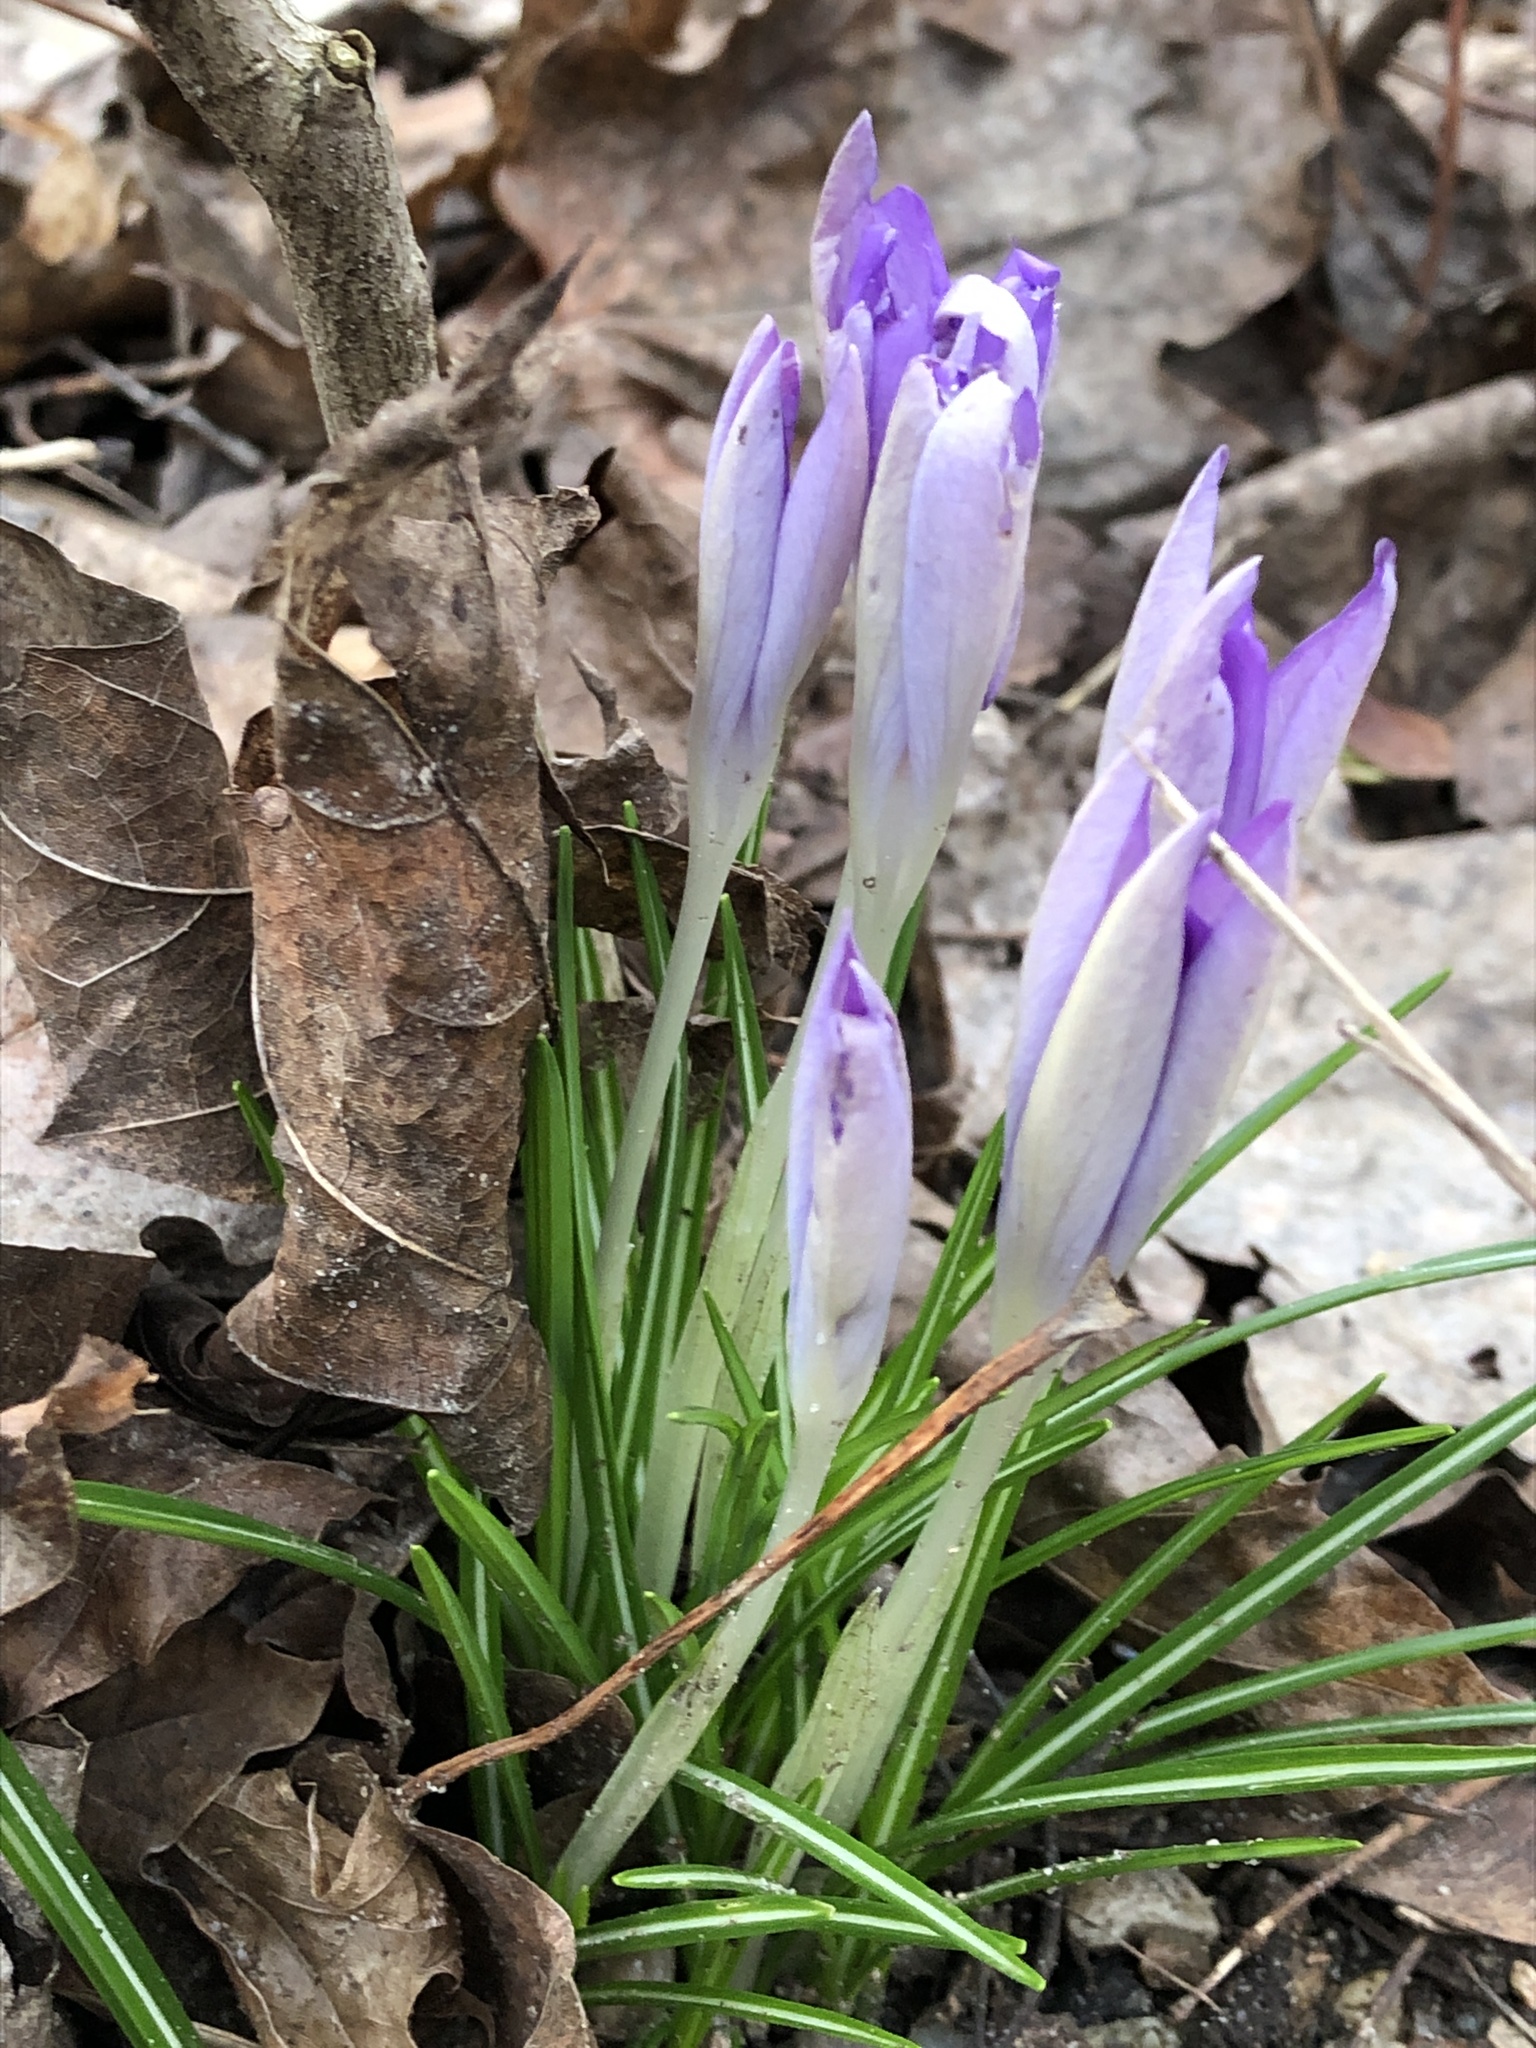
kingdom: Plantae
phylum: Tracheophyta
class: Liliopsida
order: Asparagales
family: Iridaceae
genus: Crocus
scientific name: Crocus tommasinianus
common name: Early crocus
